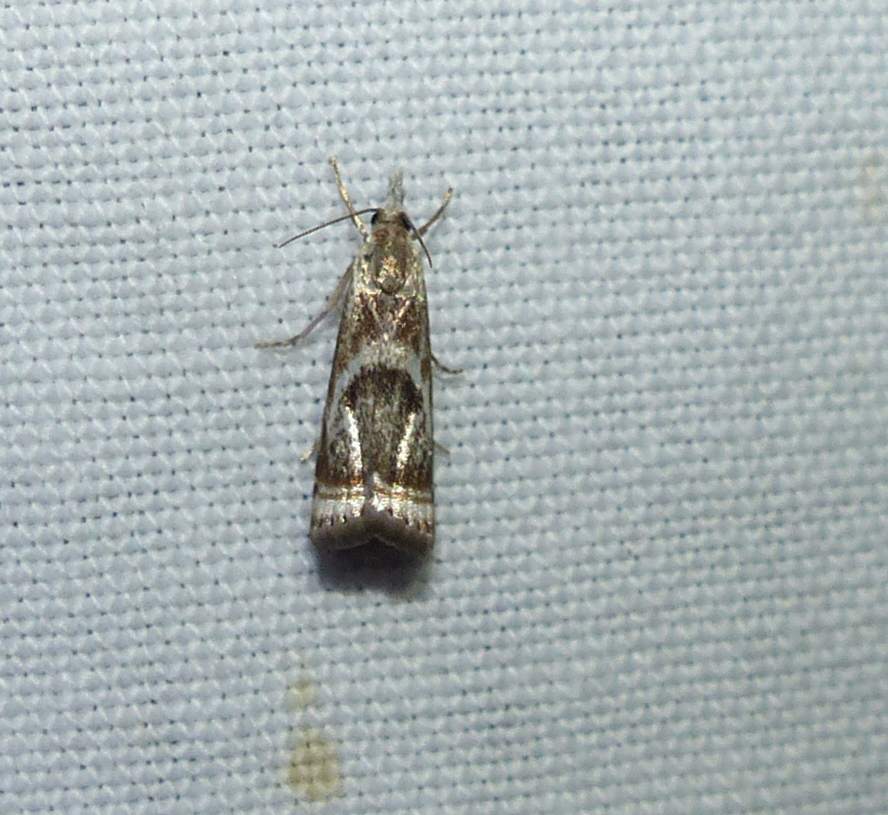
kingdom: Animalia
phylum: Arthropoda
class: Insecta
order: Lepidoptera
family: Crambidae
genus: Microcrambus
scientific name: Microcrambus elegans
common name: Elegant grass-veneer
